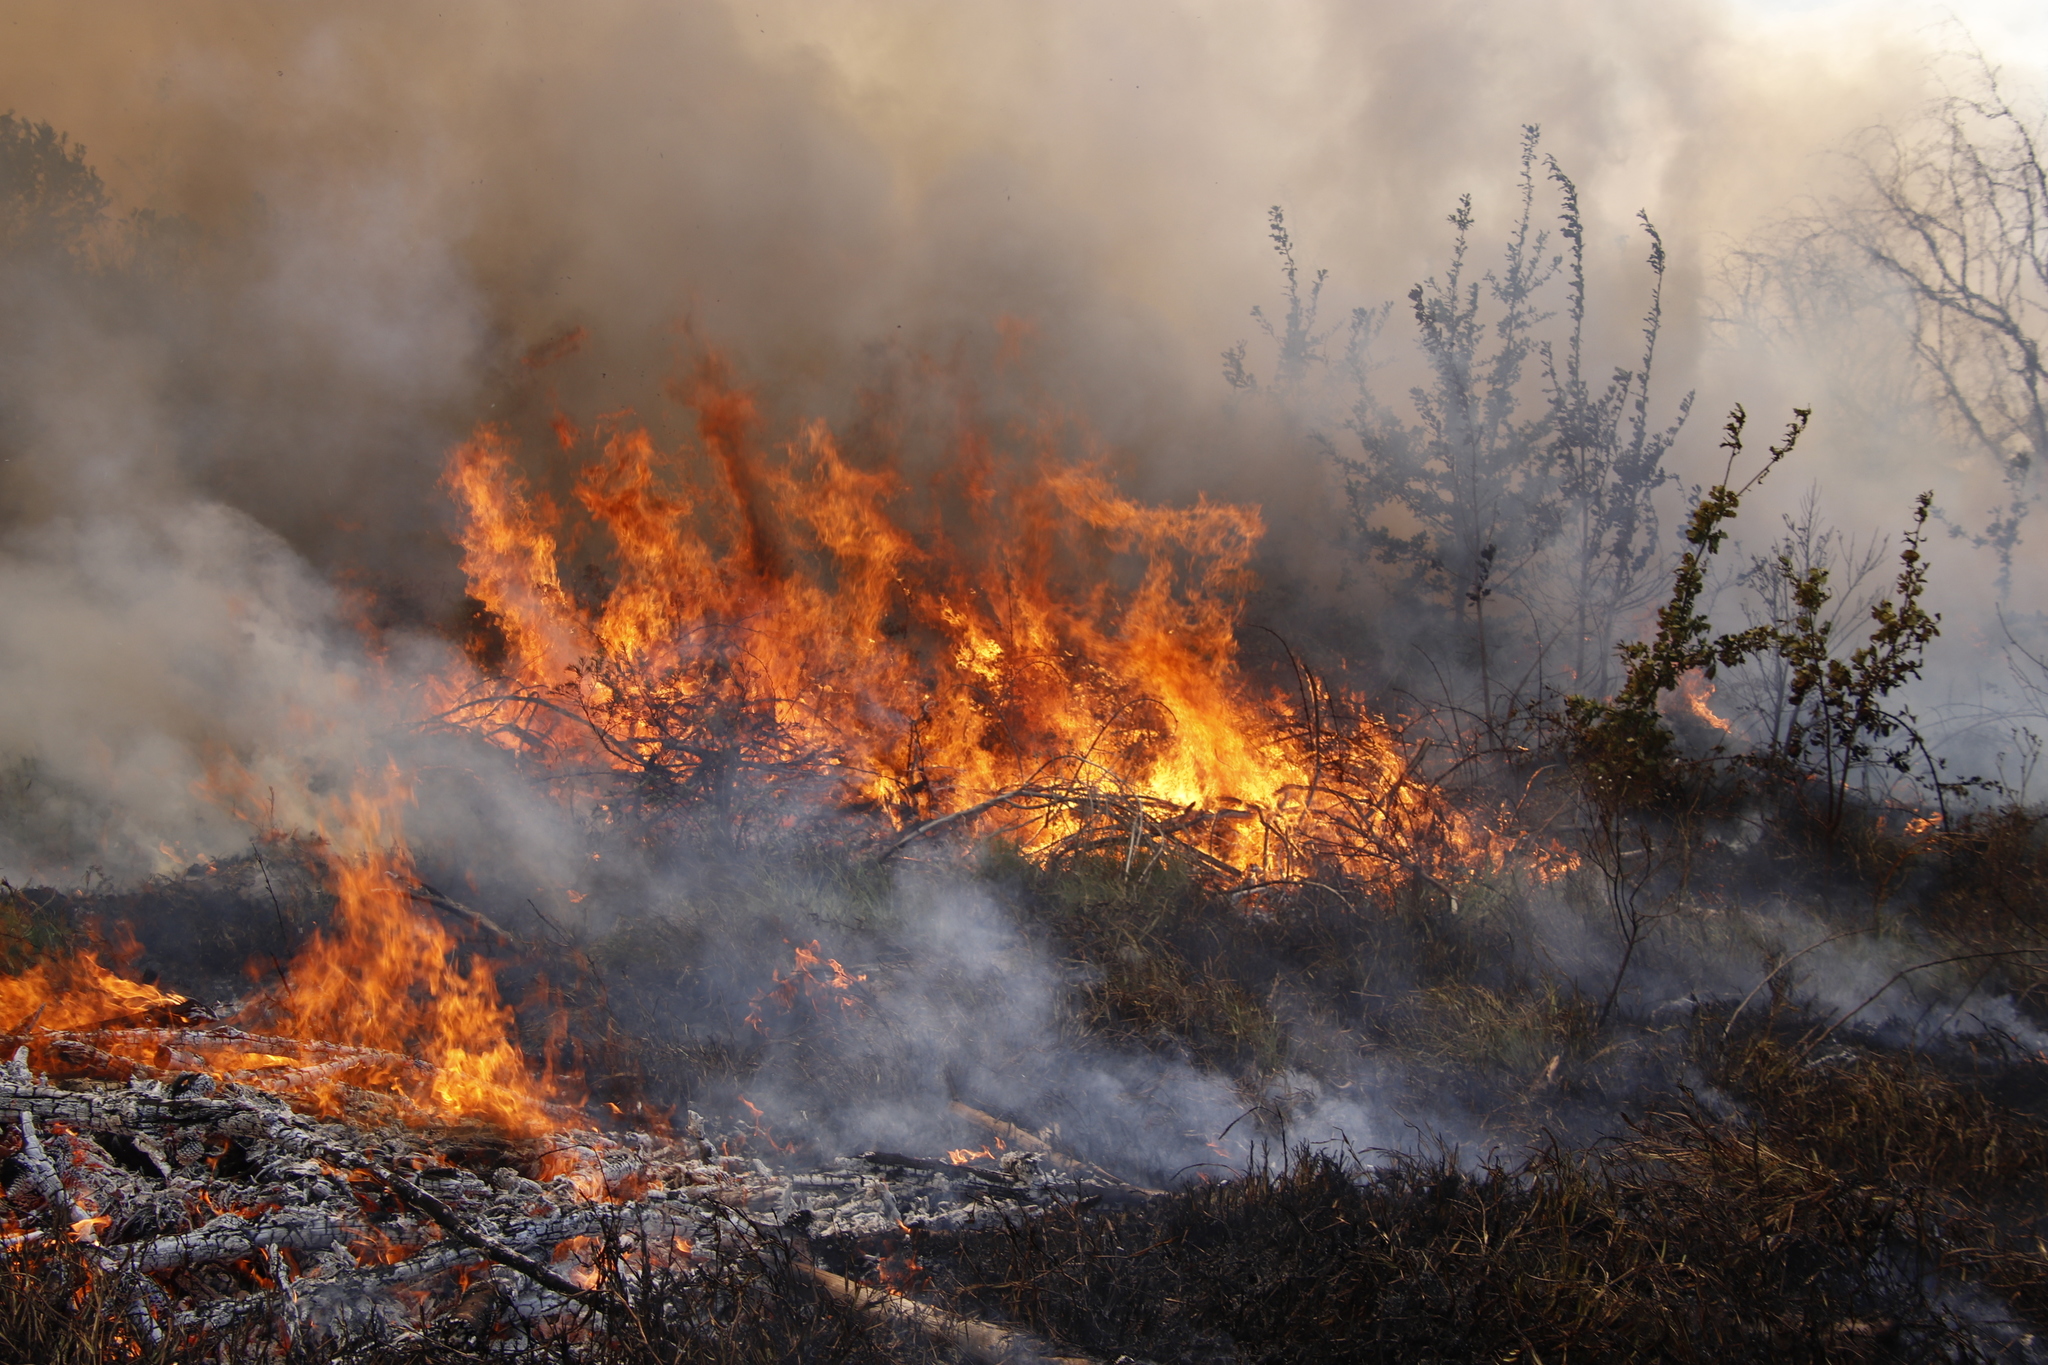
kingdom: Plantae
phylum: Tracheophyta
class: Pinopsida
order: Pinales
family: Pinaceae
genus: Pinus
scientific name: Pinus radiata
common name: Monterey pine
